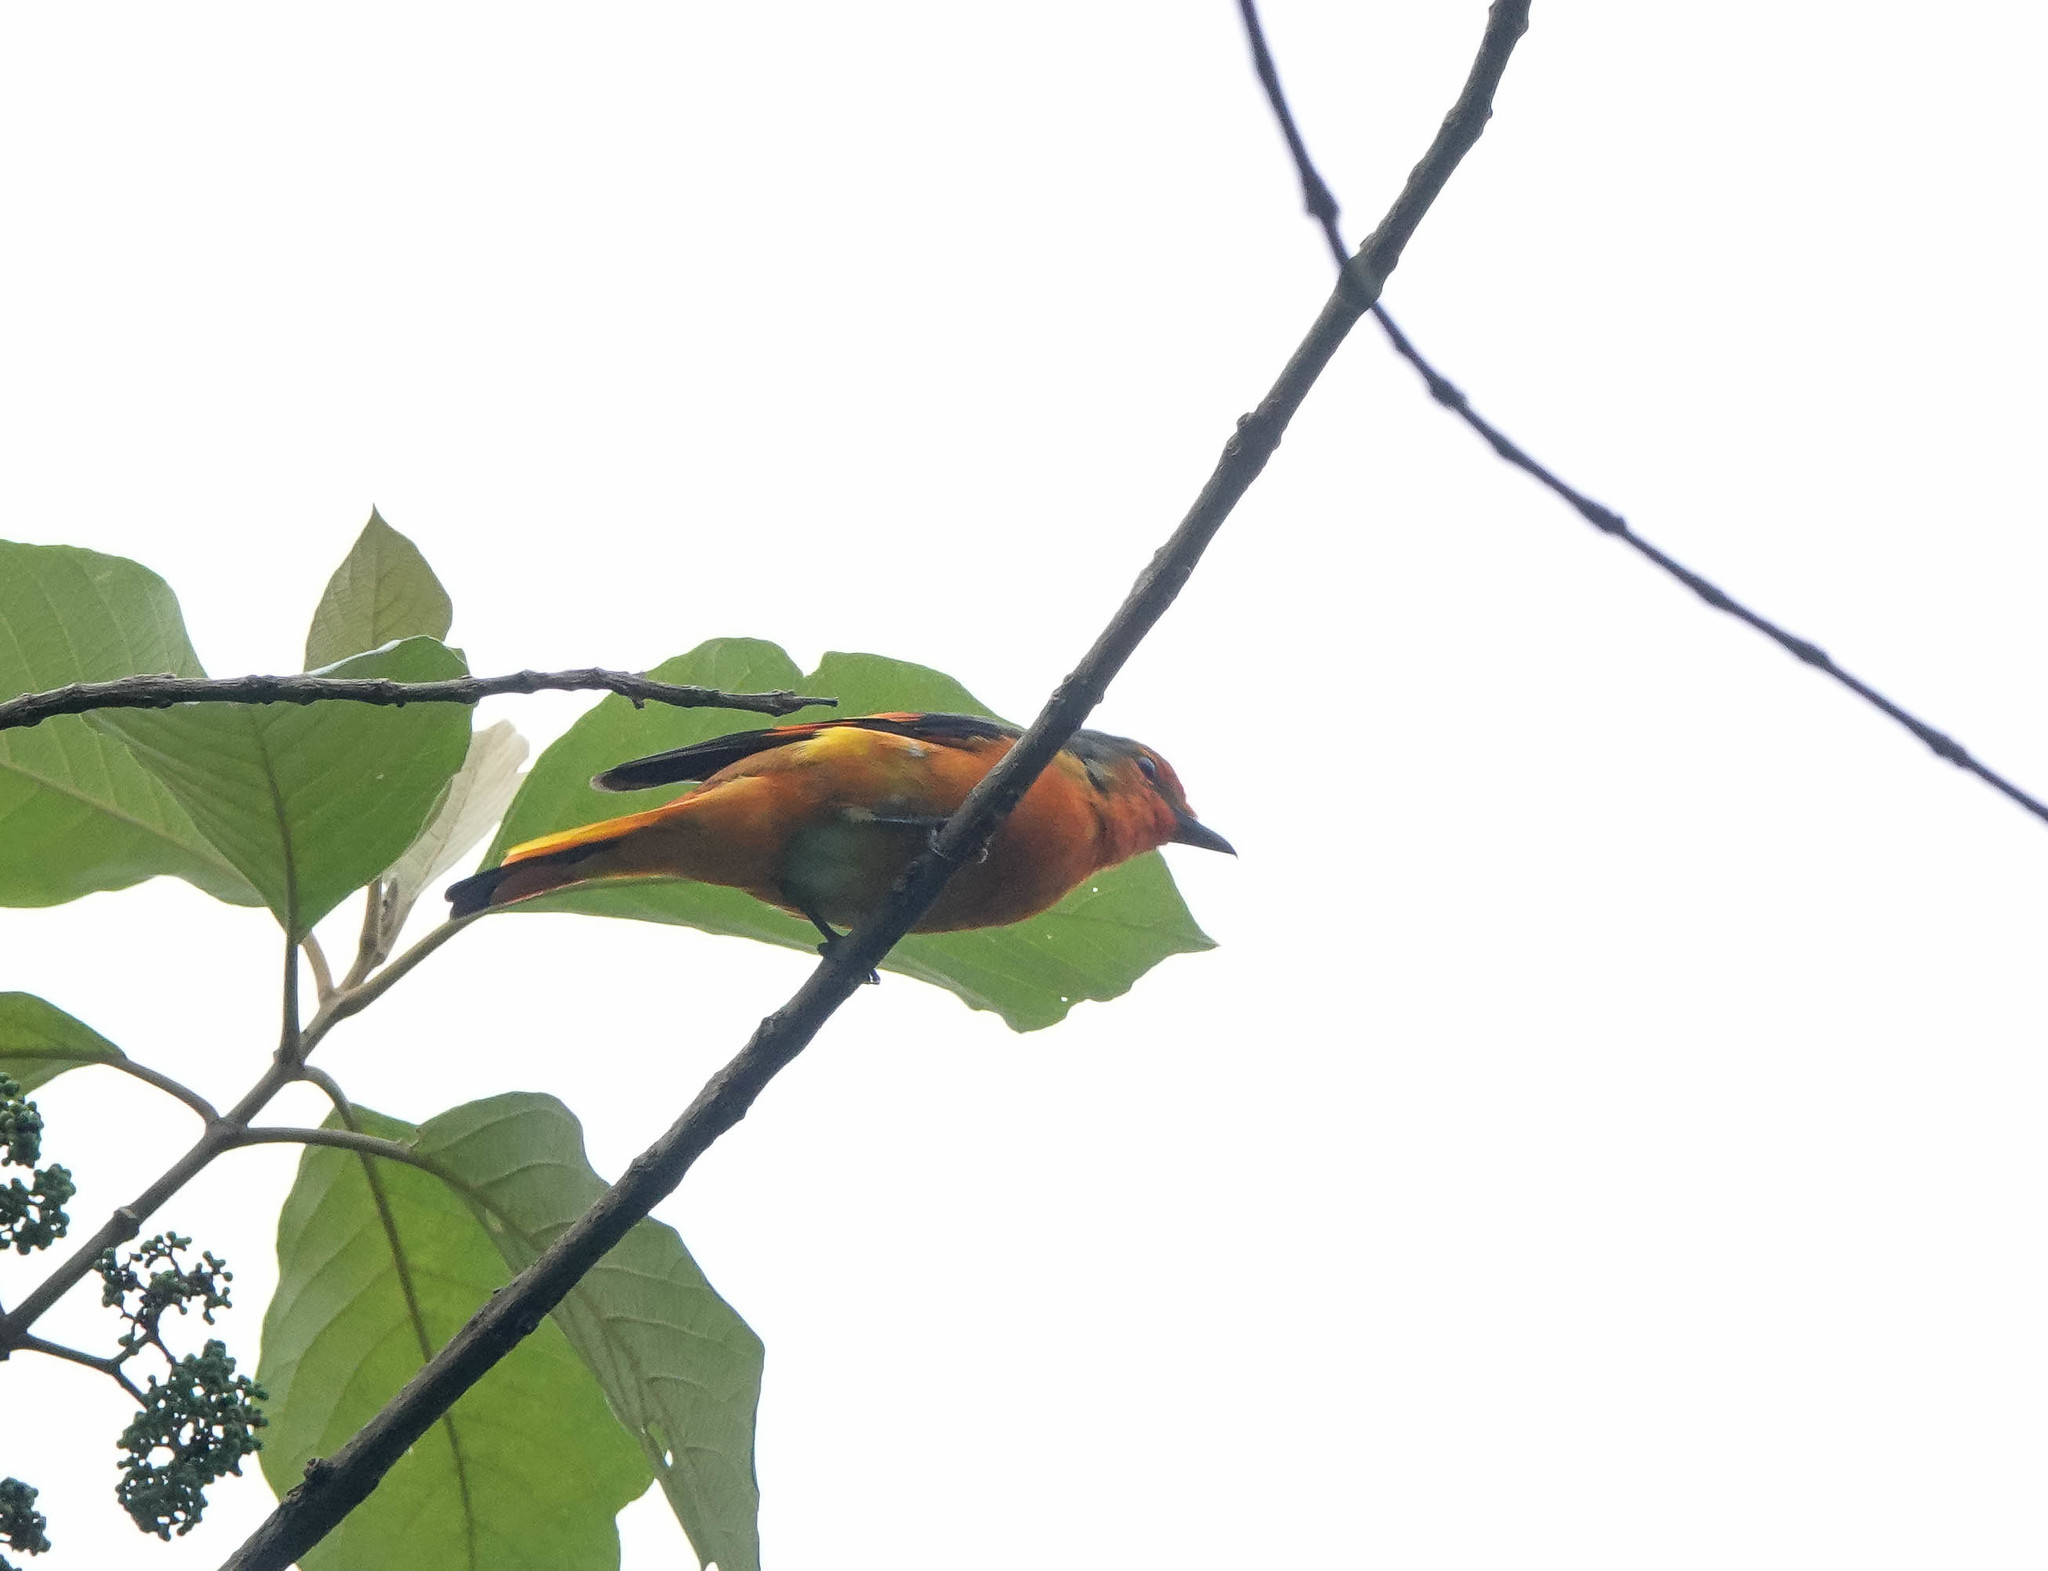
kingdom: Animalia
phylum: Chordata
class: Aves
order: Passeriformes
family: Campephagidae
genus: Pericrocotus
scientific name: Pericrocotus cinnamomeus
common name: Small minivet
